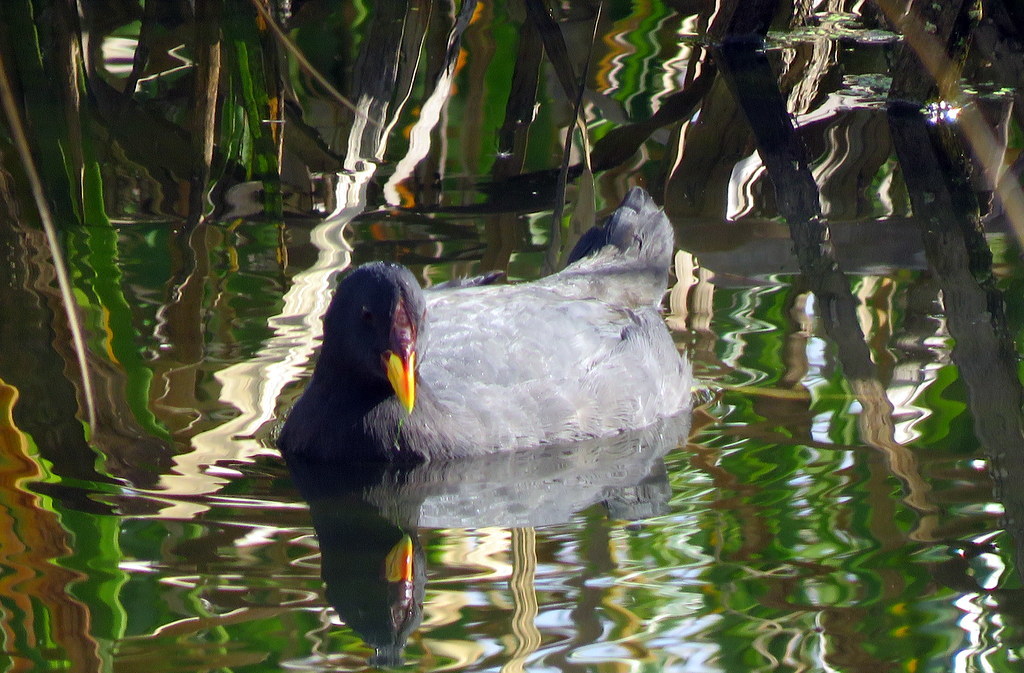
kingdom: Animalia
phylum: Chordata
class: Aves
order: Gruiformes
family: Rallidae
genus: Fulica
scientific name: Fulica rufifrons
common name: Red-fronted coot
